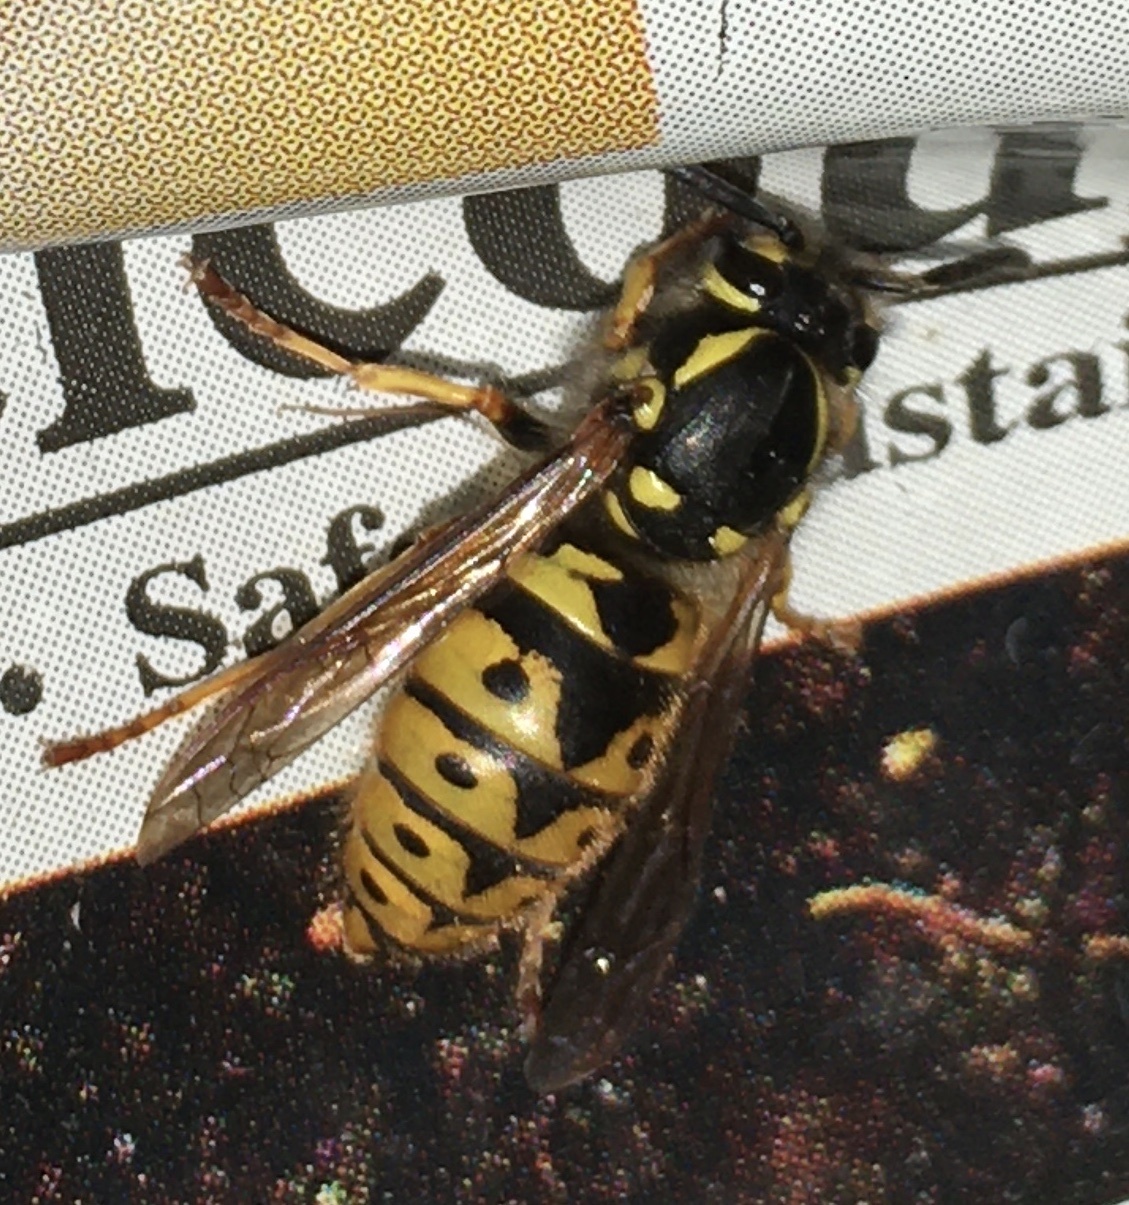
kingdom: Animalia
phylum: Arthropoda
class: Insecta
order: Hymenoptera
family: Vespidae
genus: Vespula
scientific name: Vespula germanica
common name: German wasp
